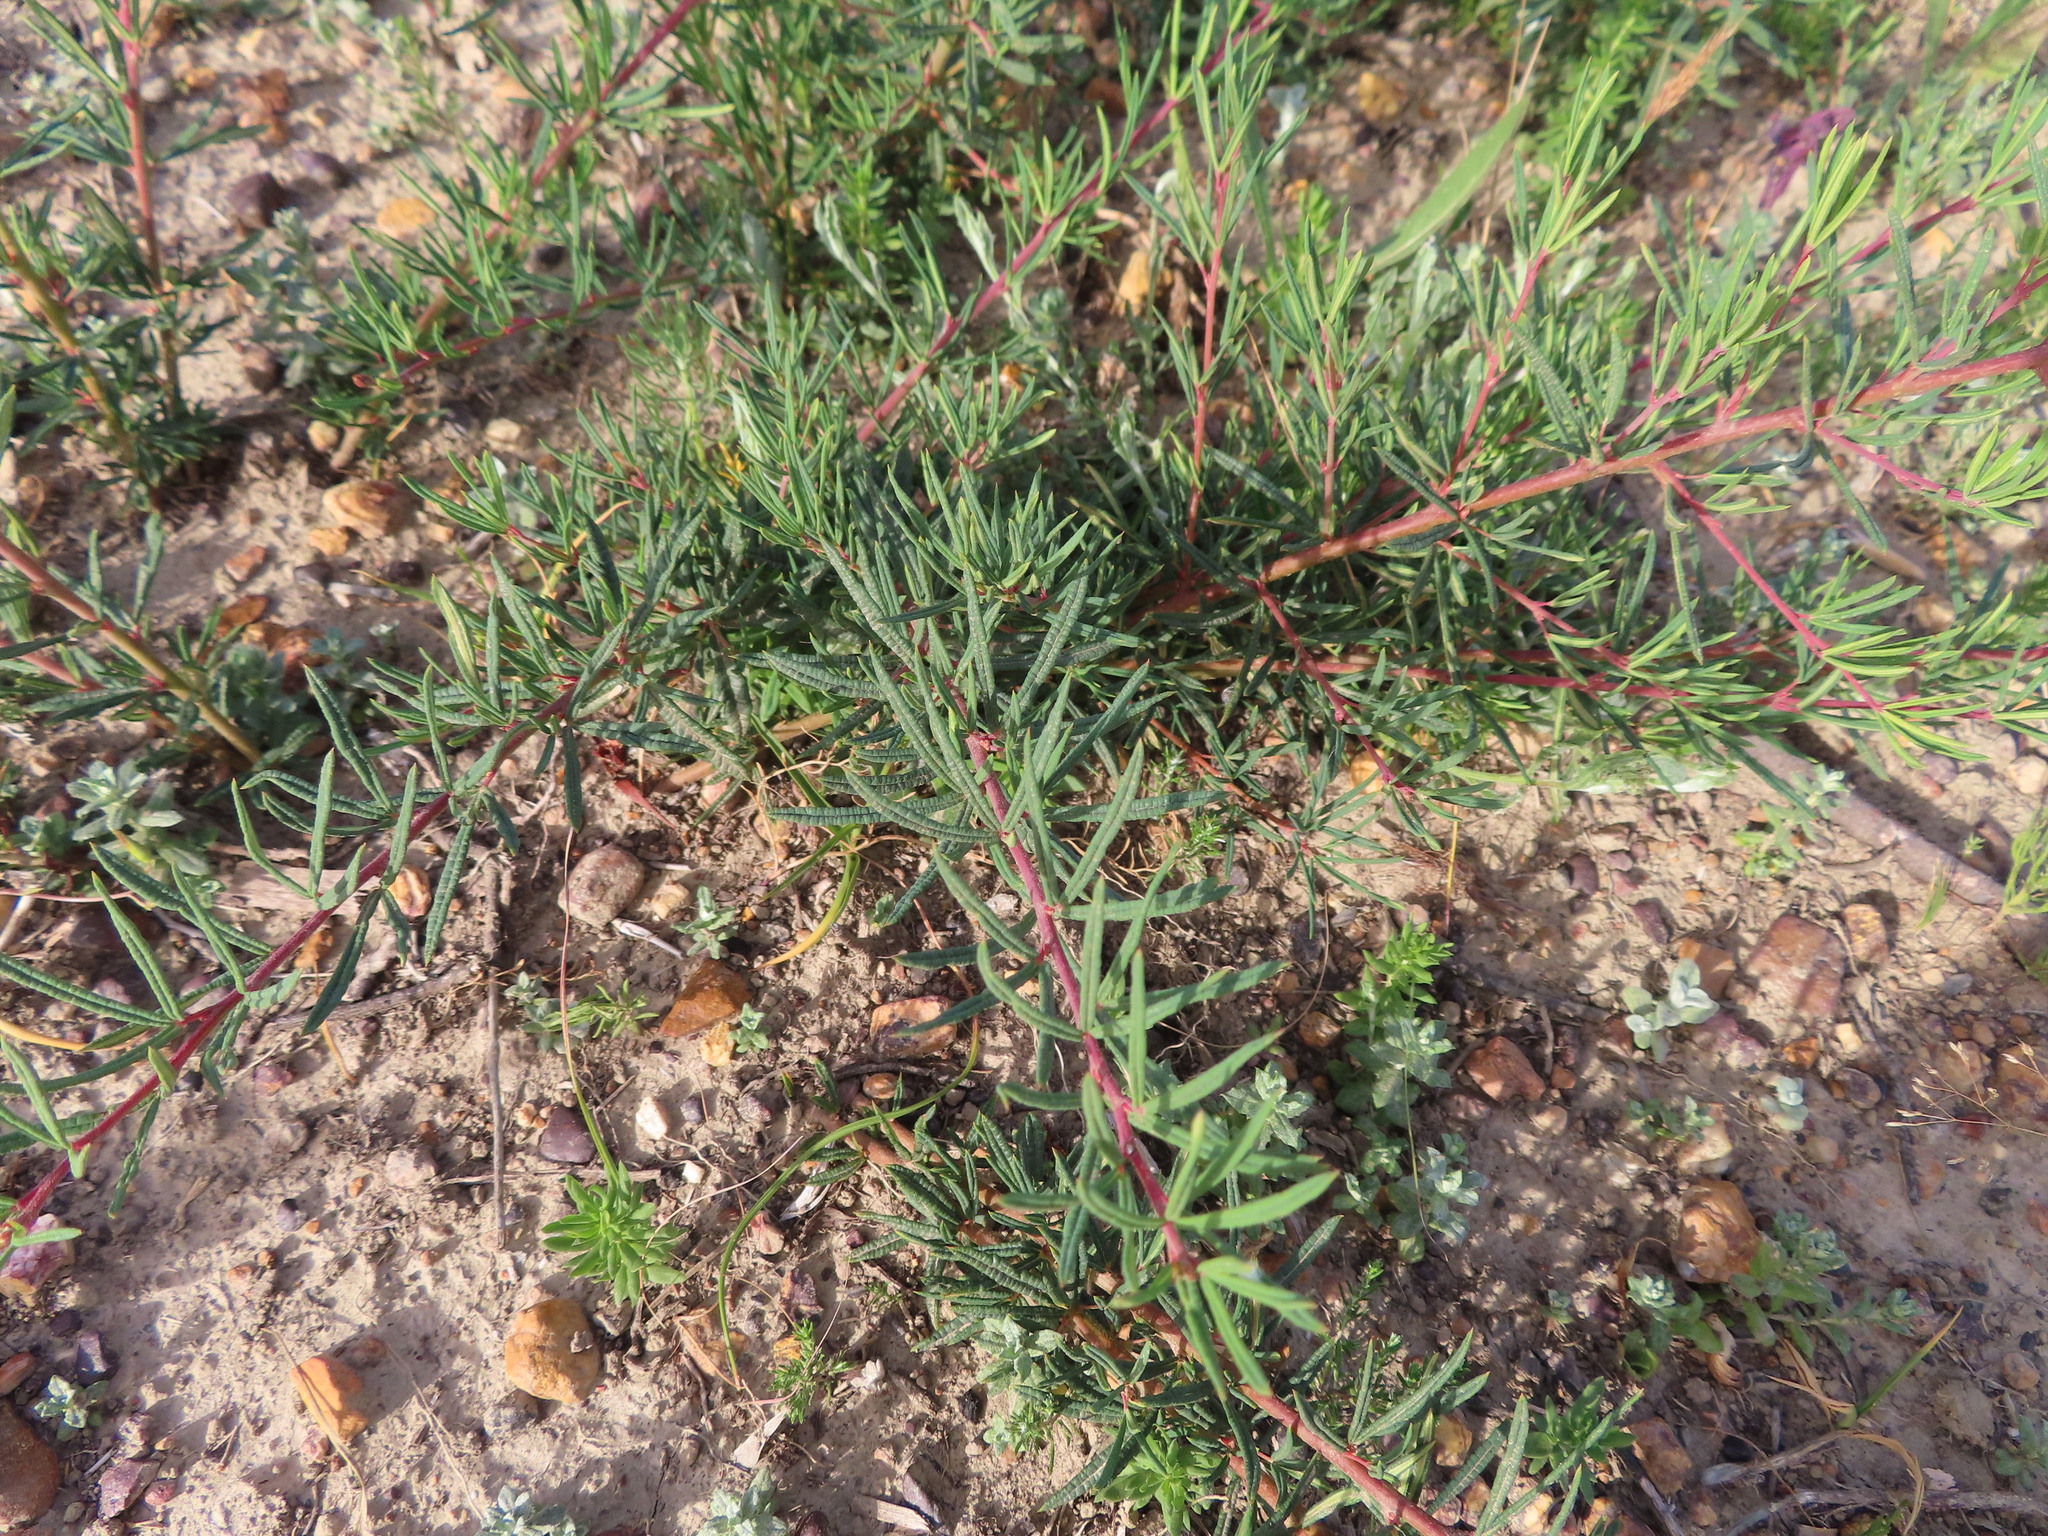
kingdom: Plantae
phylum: Tracheophyta
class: Magnoliopsida
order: Sapindales
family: Anacardiaceae
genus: Searsia
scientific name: Searsia rosmarinifolia
